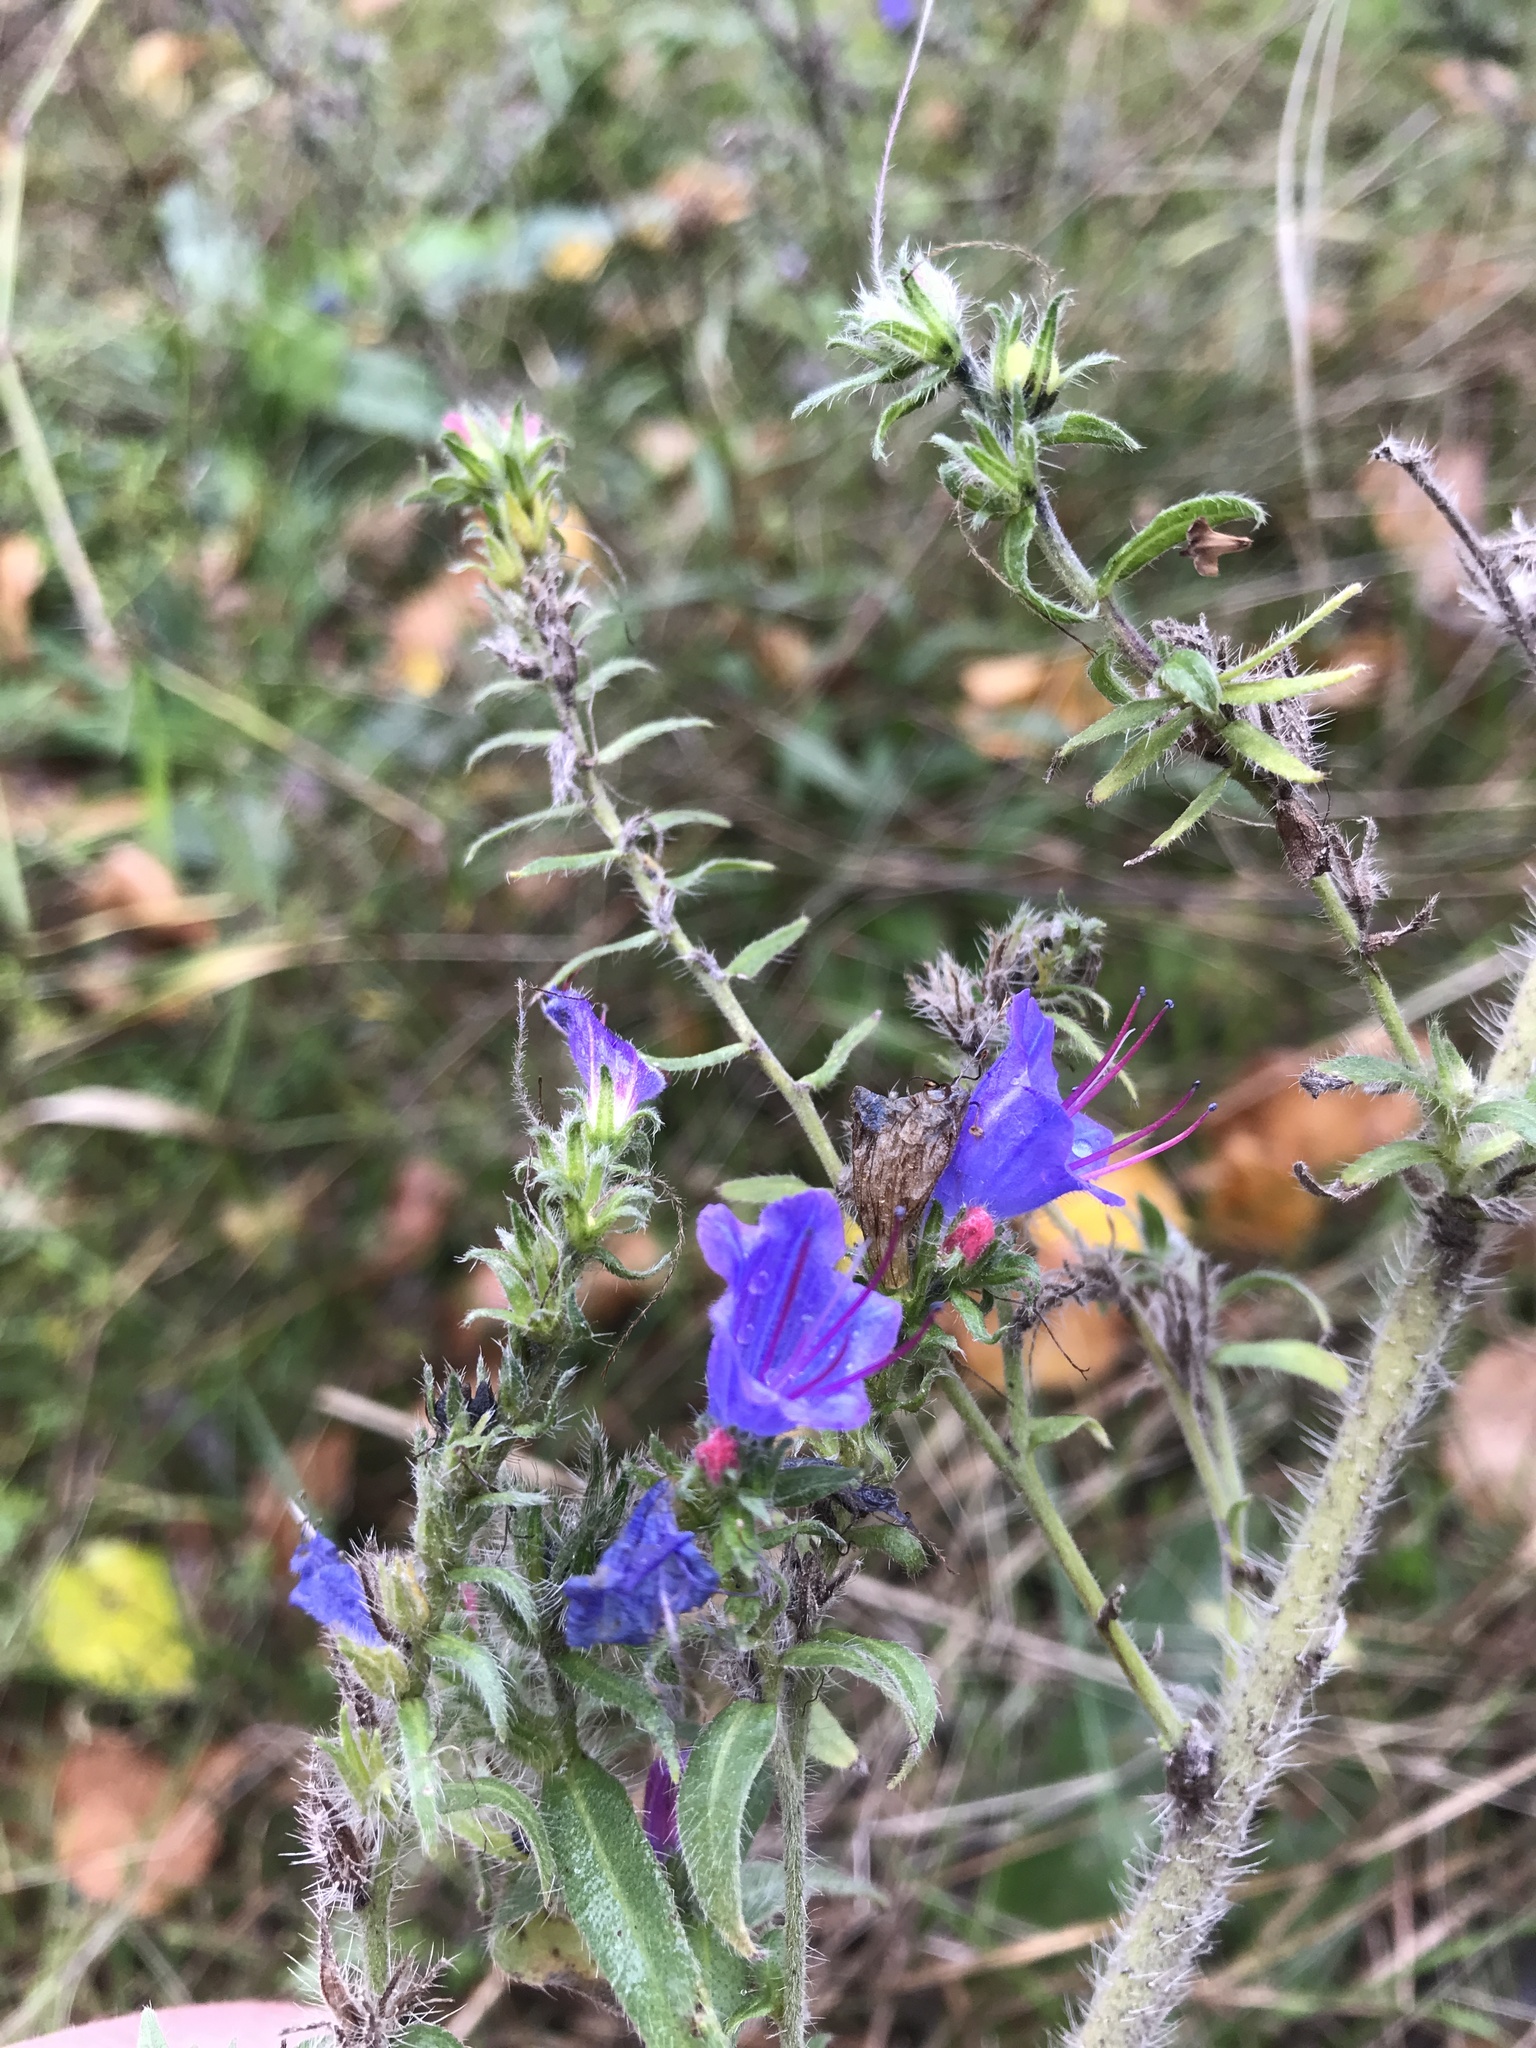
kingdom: Plantae
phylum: Tracheophyta
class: Magnoliopsida
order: Boraginales
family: Boraginaceae
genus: Echium
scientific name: Echium vulgare
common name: Common viper's bugloss
